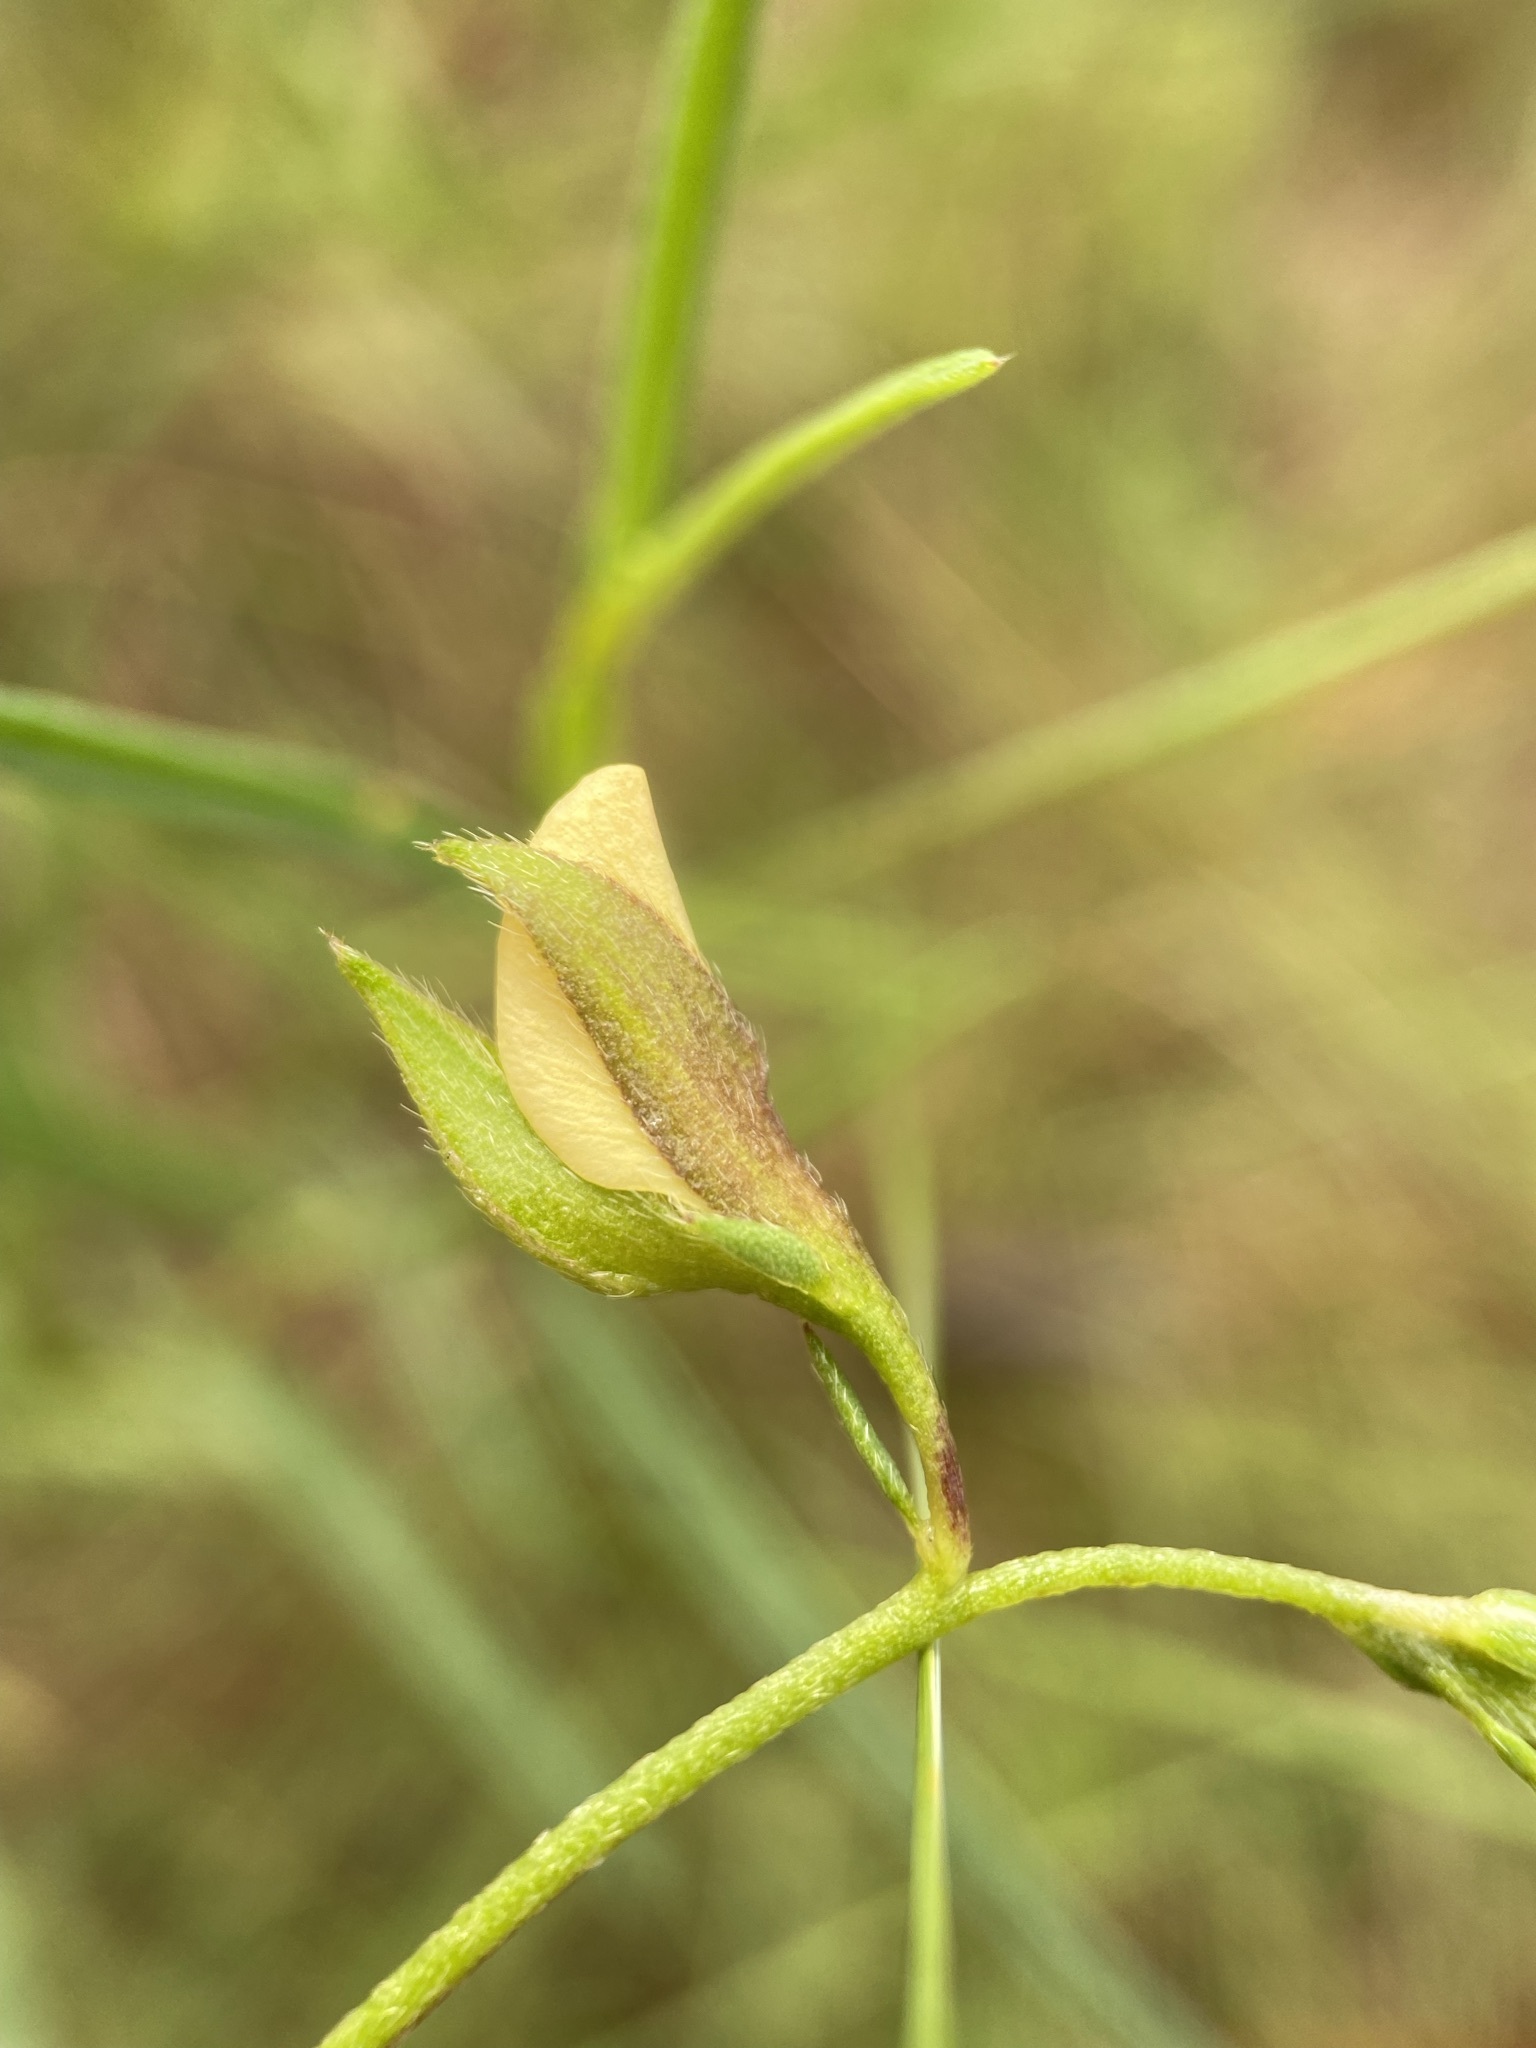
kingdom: Plantae
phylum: Tracheophyta
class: Magnoliopsida
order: Fabales
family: Fabaceae
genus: Crotalaria
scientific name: Crotalaria purshii
